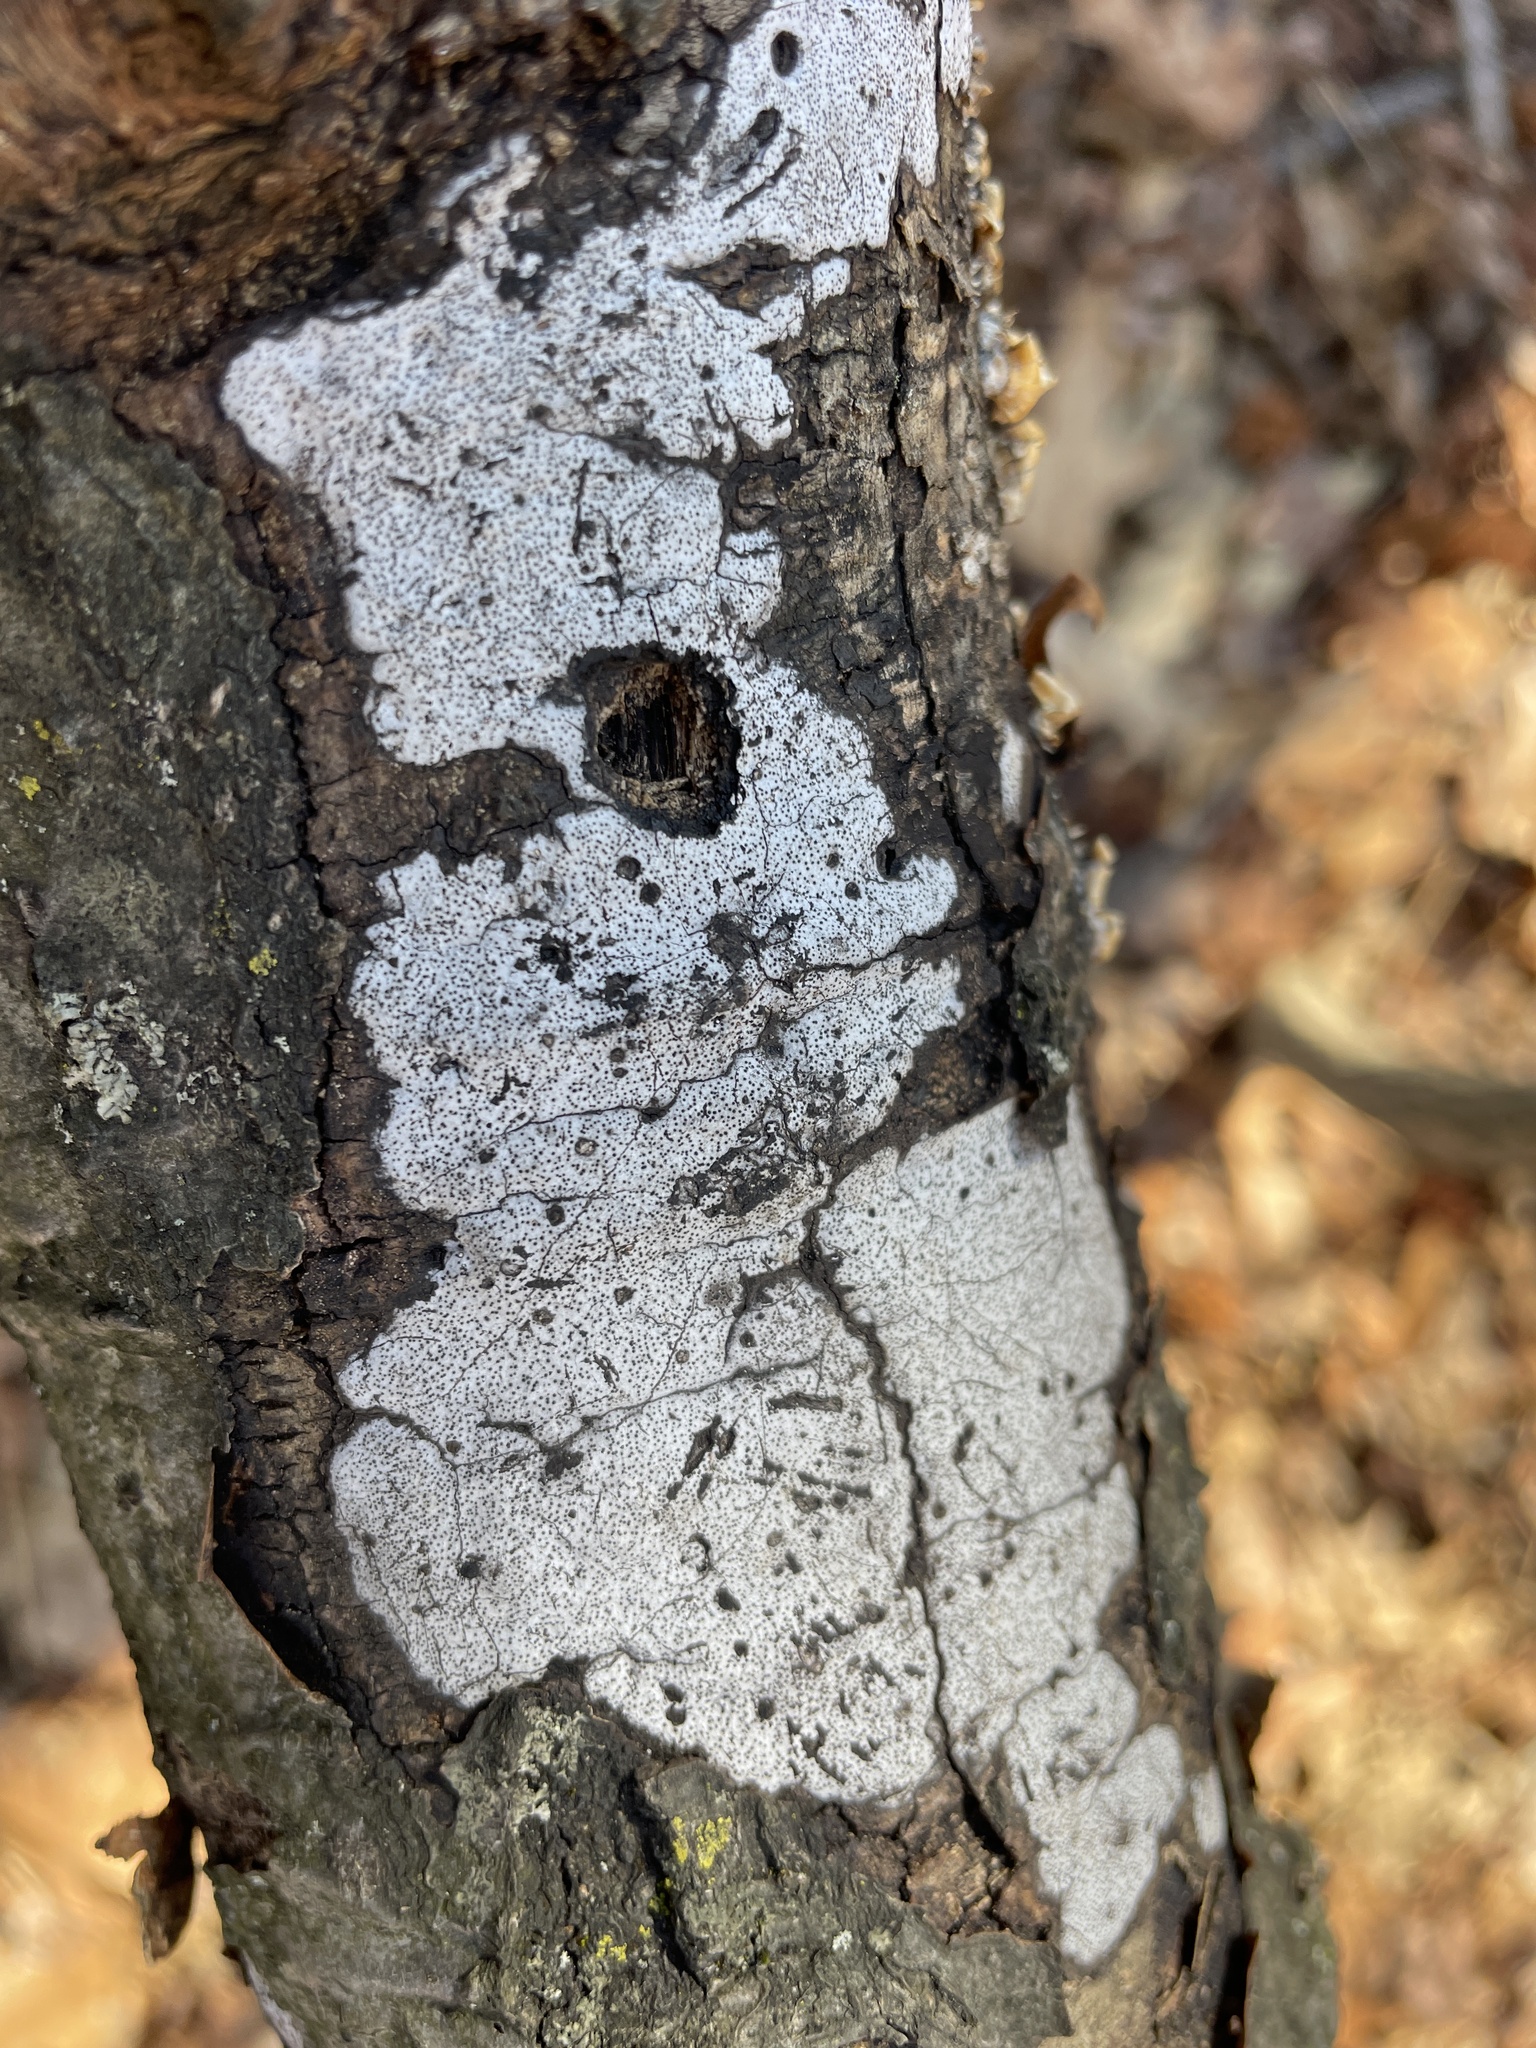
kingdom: Fungi
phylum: Ascomycota
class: Sordariomycetes
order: Xylariales
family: Graphostromataceae
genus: Biscogniauxia
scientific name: Biscogniauxia atropunctata
